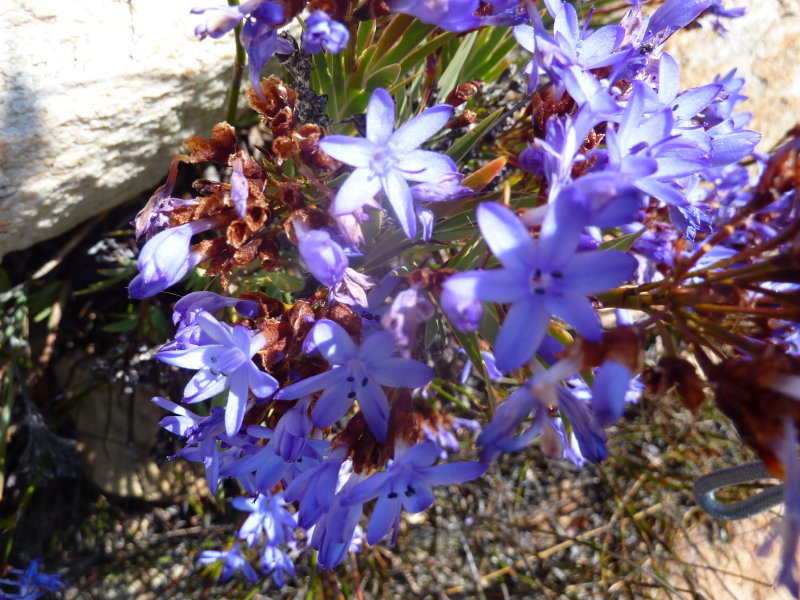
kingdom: Plantae
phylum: Tracheophyta
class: Liliopsida
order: Asparagales
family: Iridaceae
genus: Nivenia
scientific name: Nivenia binata
